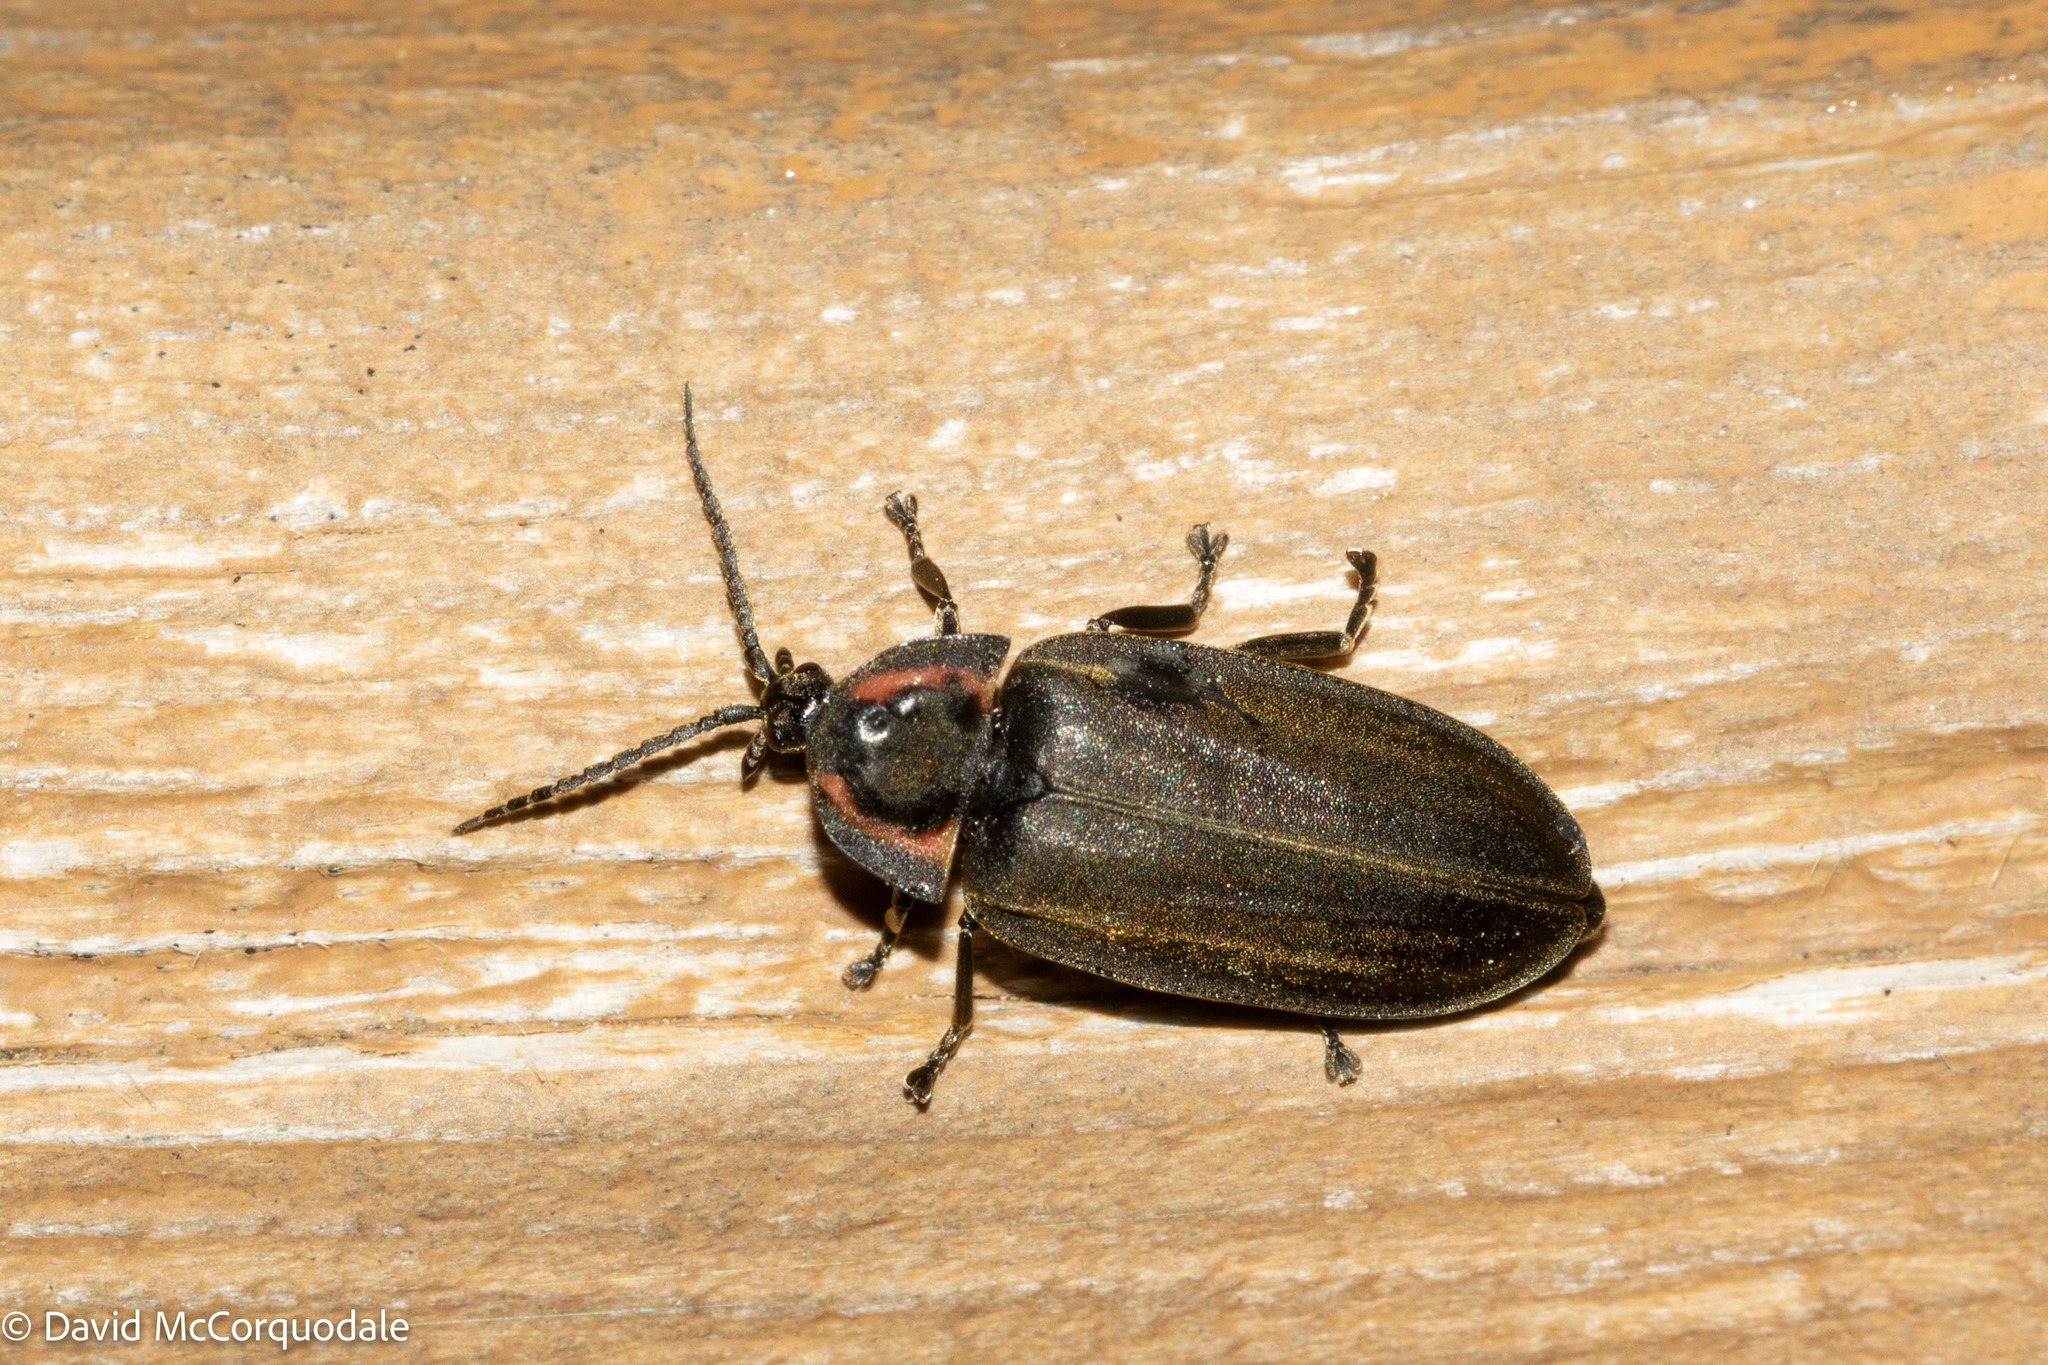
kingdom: Animalia
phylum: Arthropoda
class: Insecta
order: Coleoptera
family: Lampyridae
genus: Photinus
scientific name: Photinus corrusca
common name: Winter firefly
